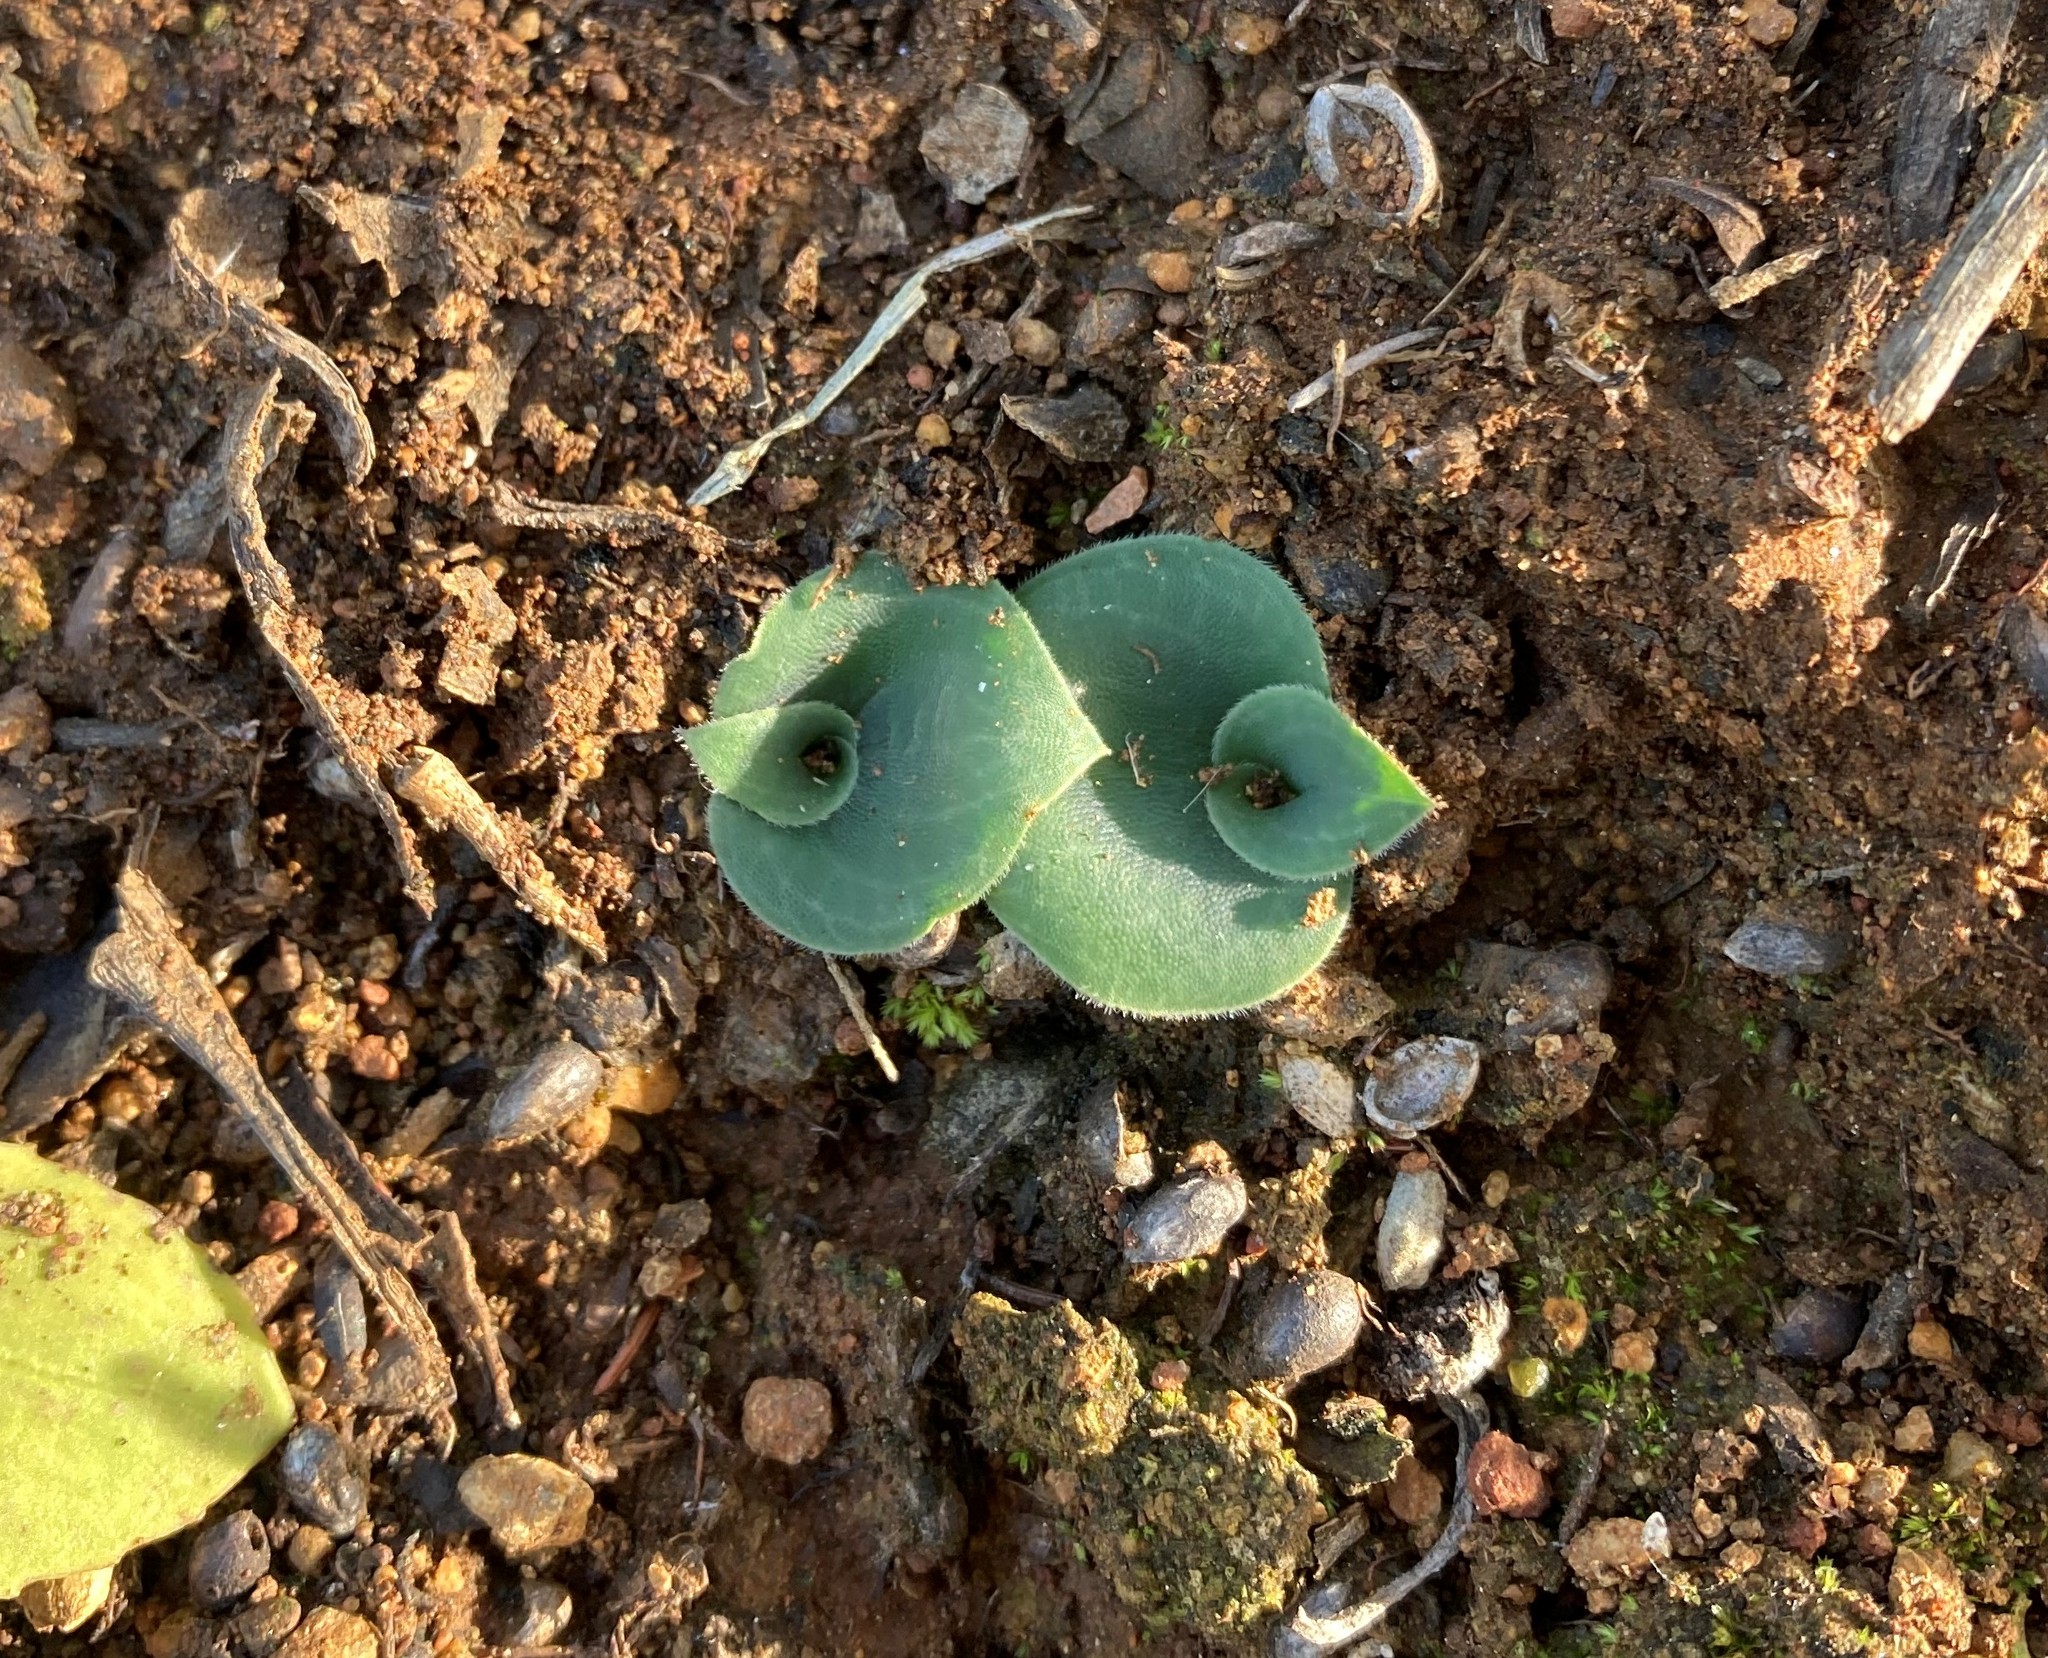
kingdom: Plantae
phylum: Tracheophyta
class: Liliopsida
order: Asparagales
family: Orchidaceae
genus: Holothrix
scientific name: Holothrix mundii
